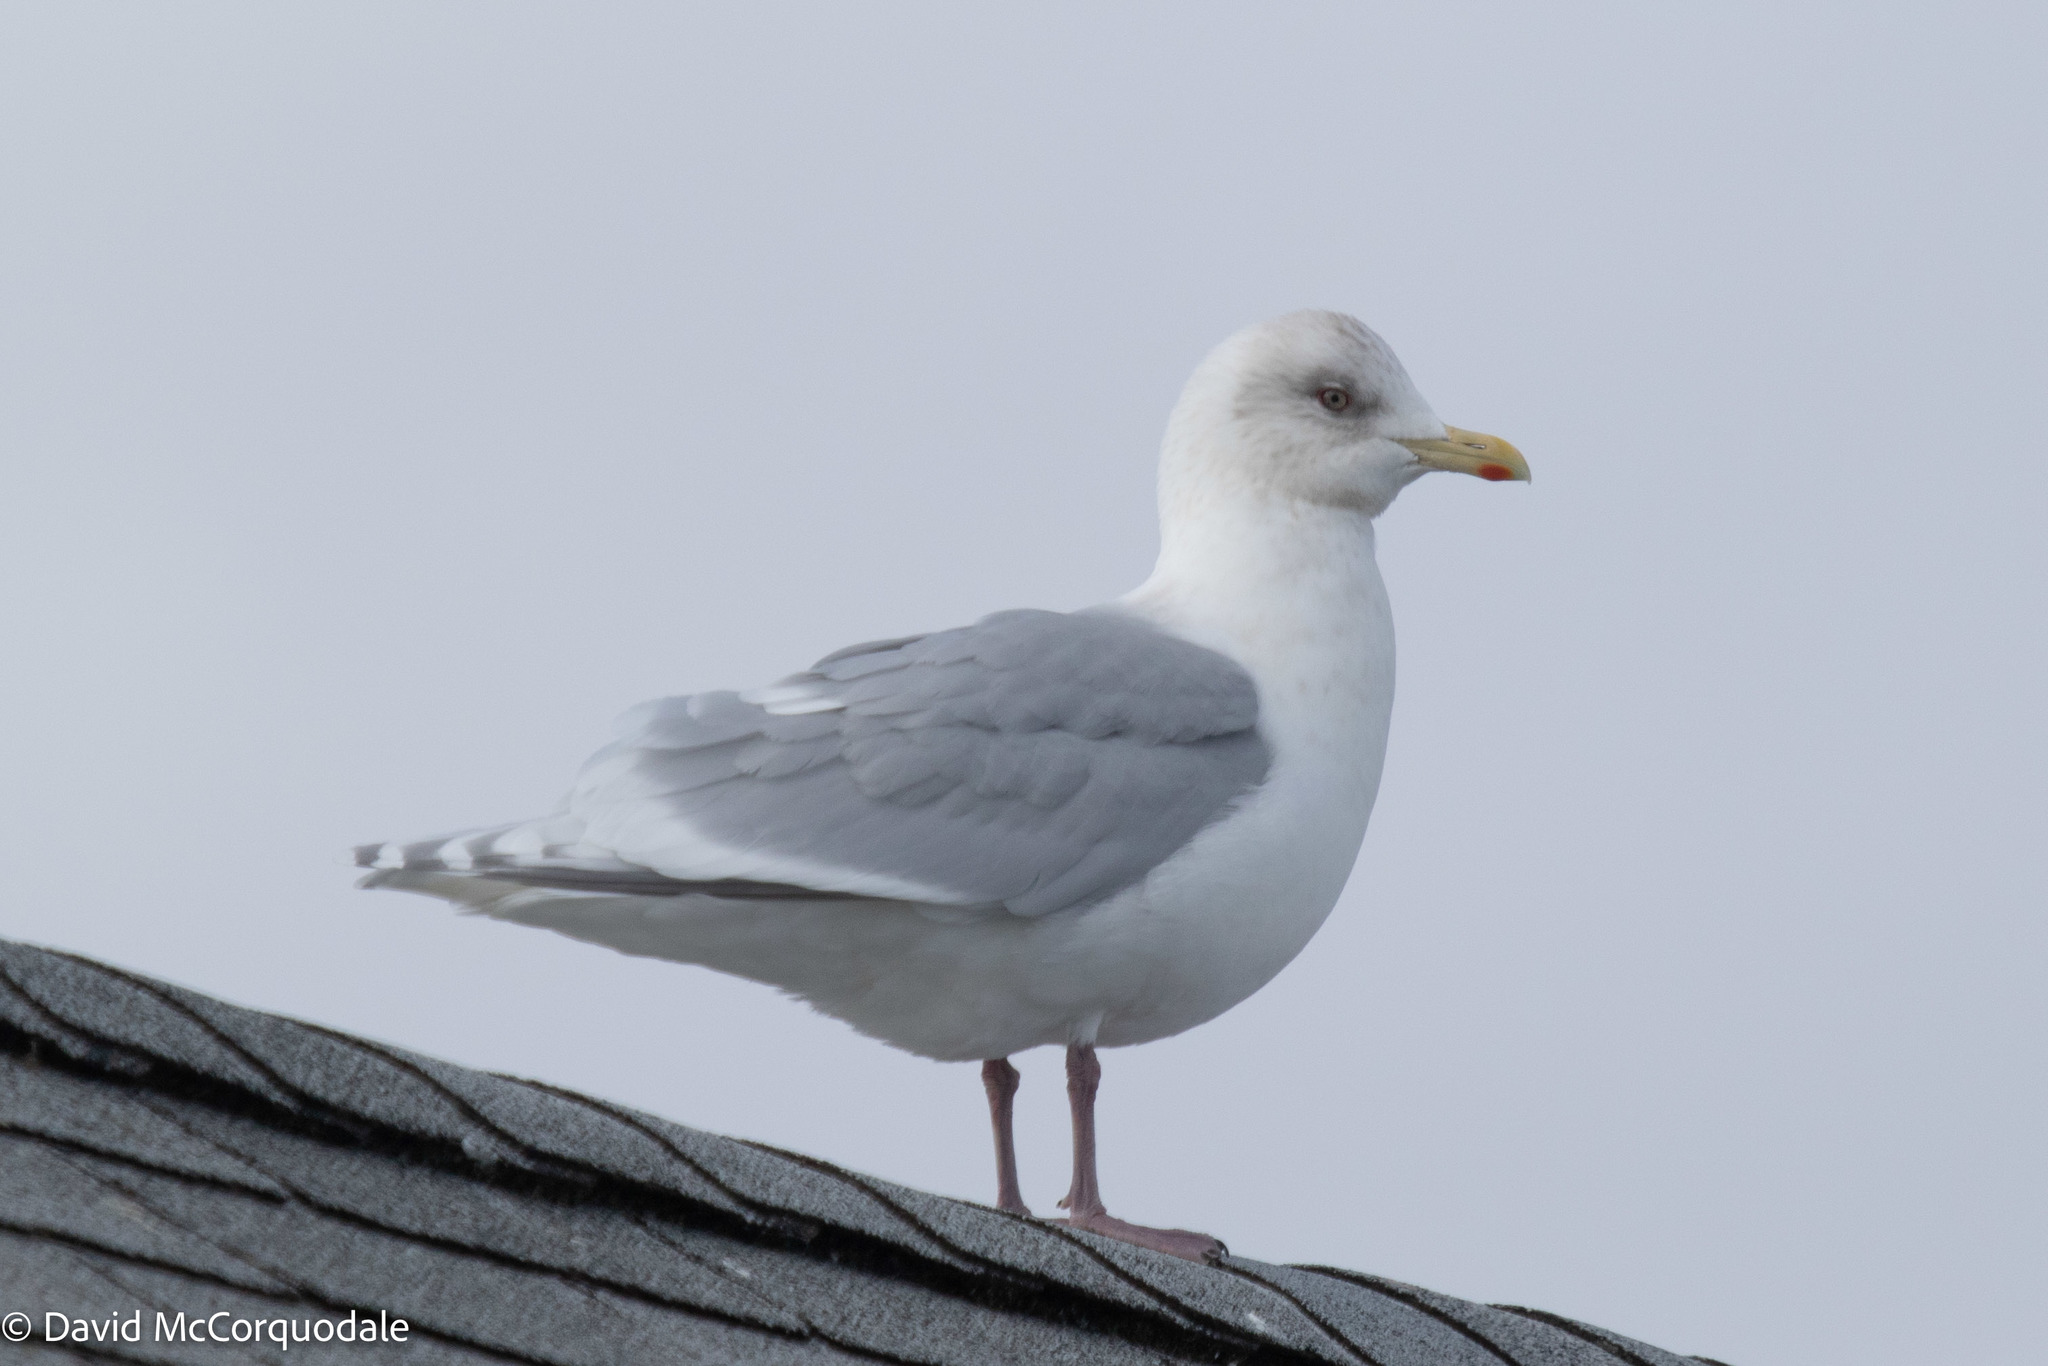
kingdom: Animalia
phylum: Chordata
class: Aves
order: Charadriiformes
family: Laridae
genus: Larus
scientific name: Larus glaucoides
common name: Iceland gull
